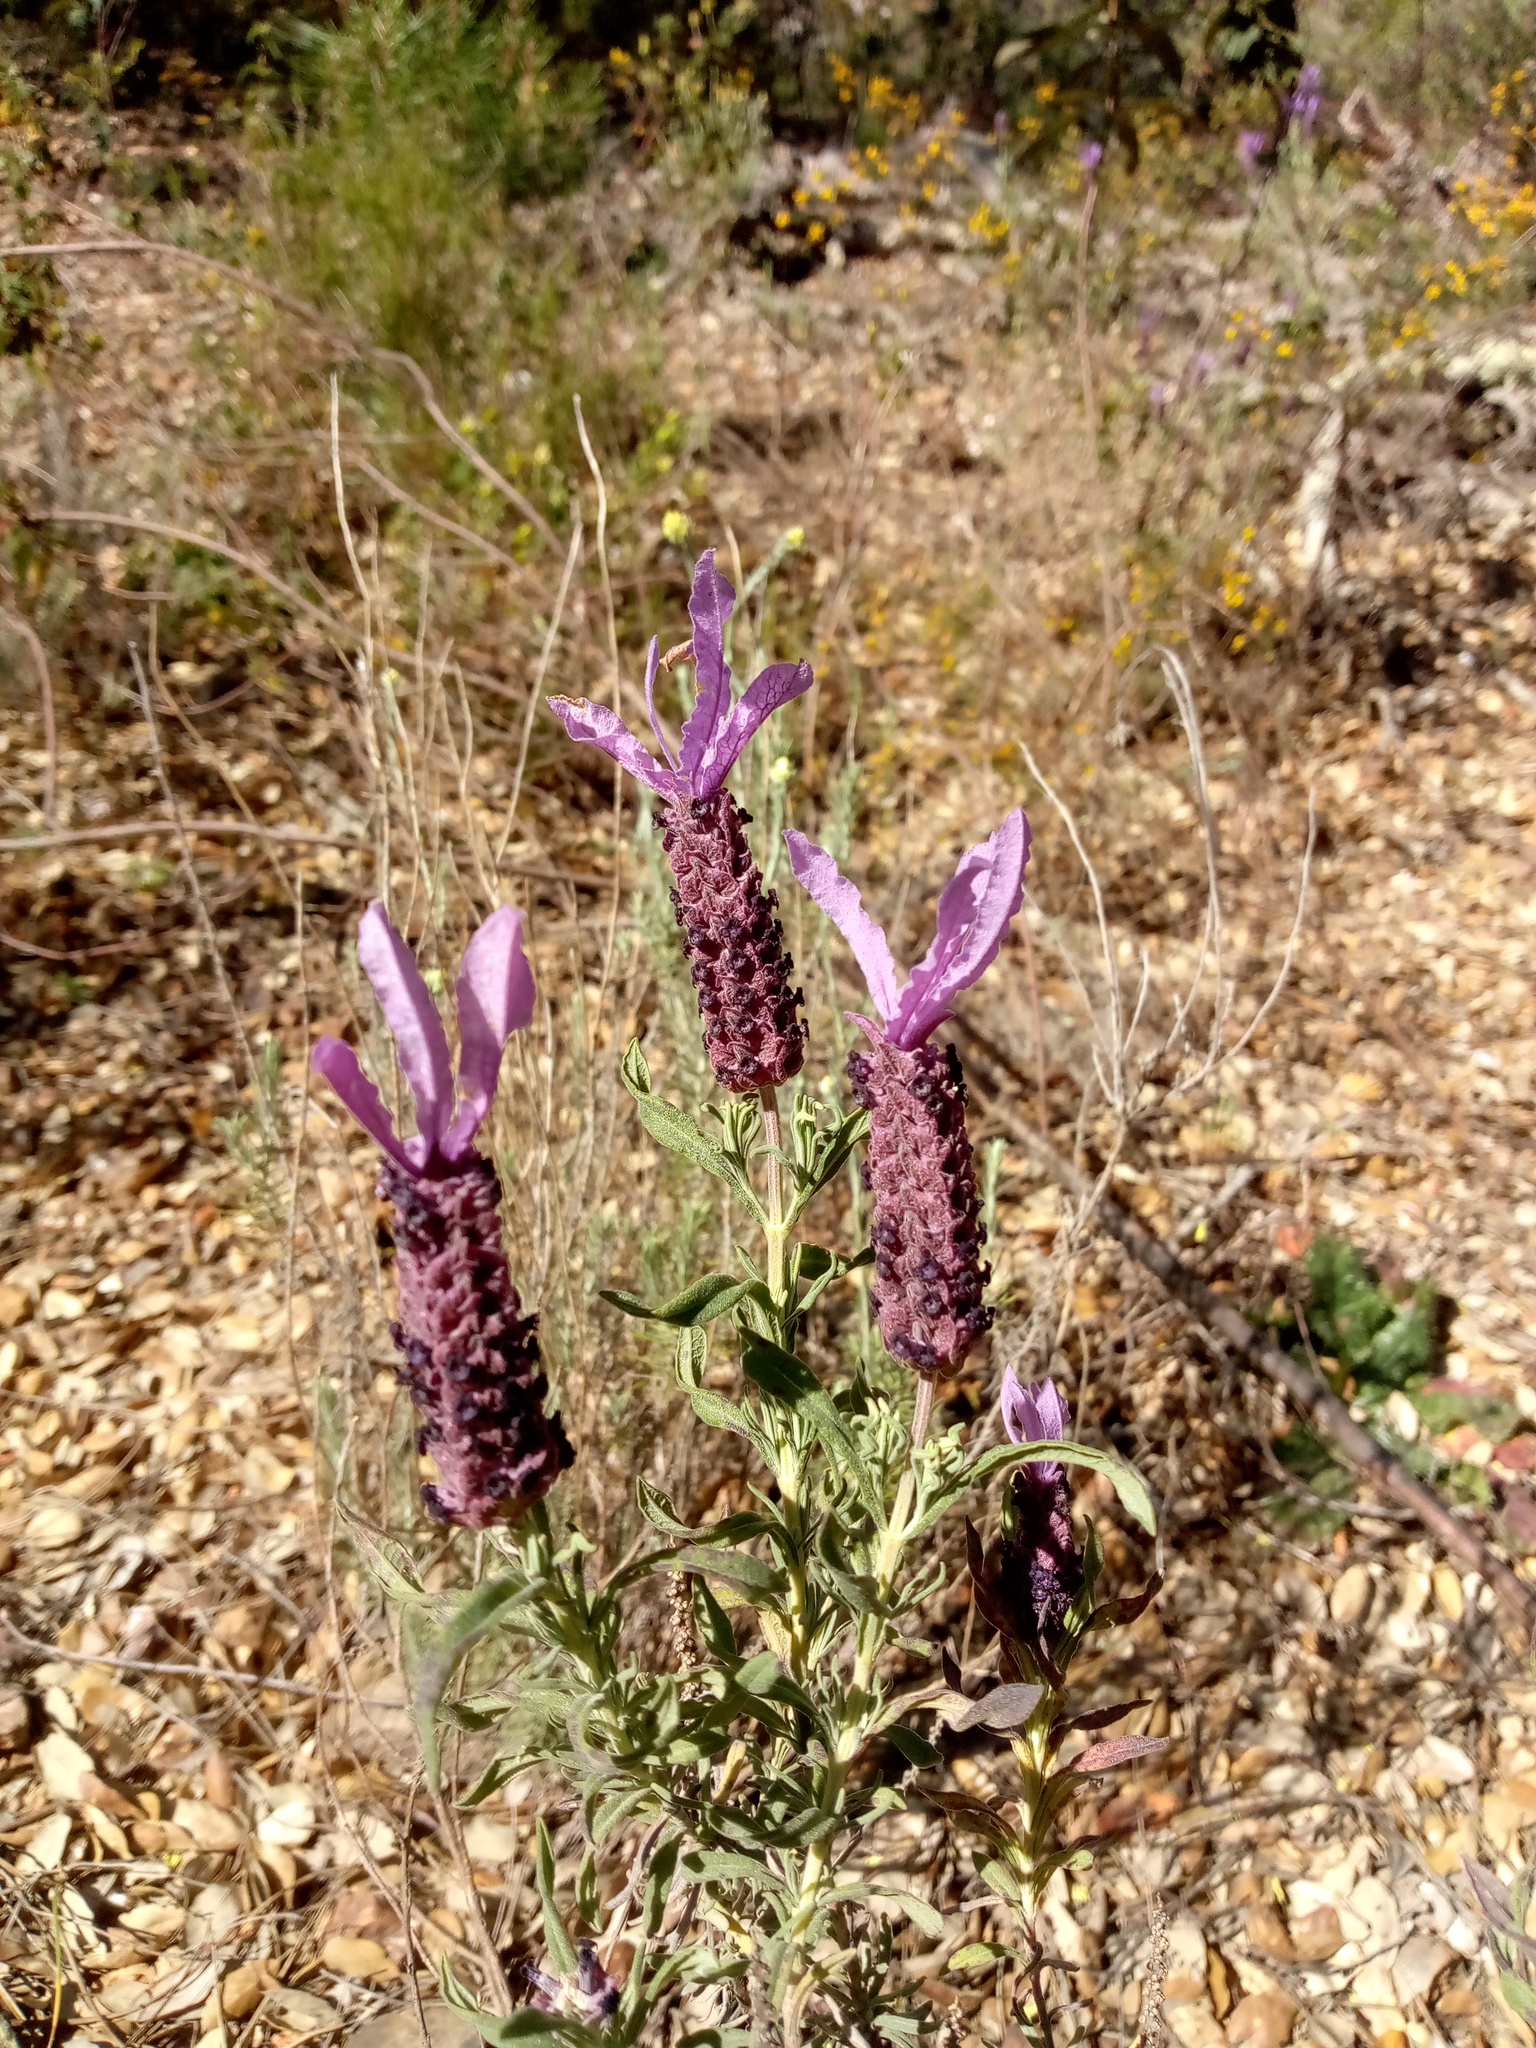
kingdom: Plantae
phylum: Tracheophyta
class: Magnoliopsida
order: Lamiales
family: Lamiaceae
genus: Lavandula
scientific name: Lavandula stoechas
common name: French lavender
